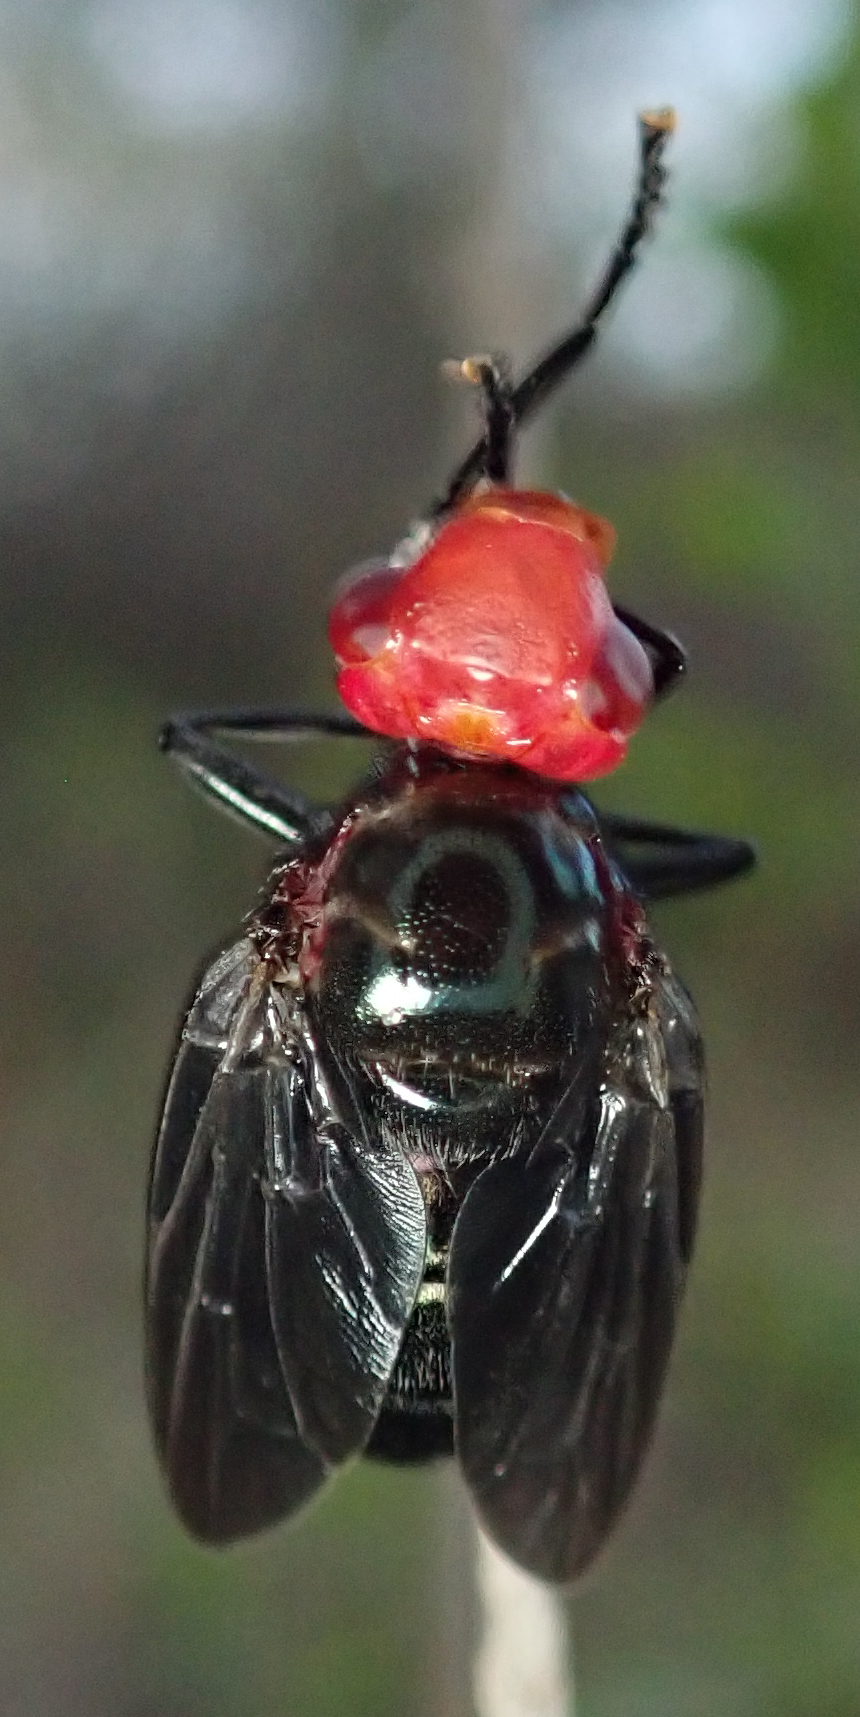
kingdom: Animalia
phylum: Arthropoda
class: Insecta
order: Diptera
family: Platystomatidae
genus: Bromophila
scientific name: Bromophila caffra
